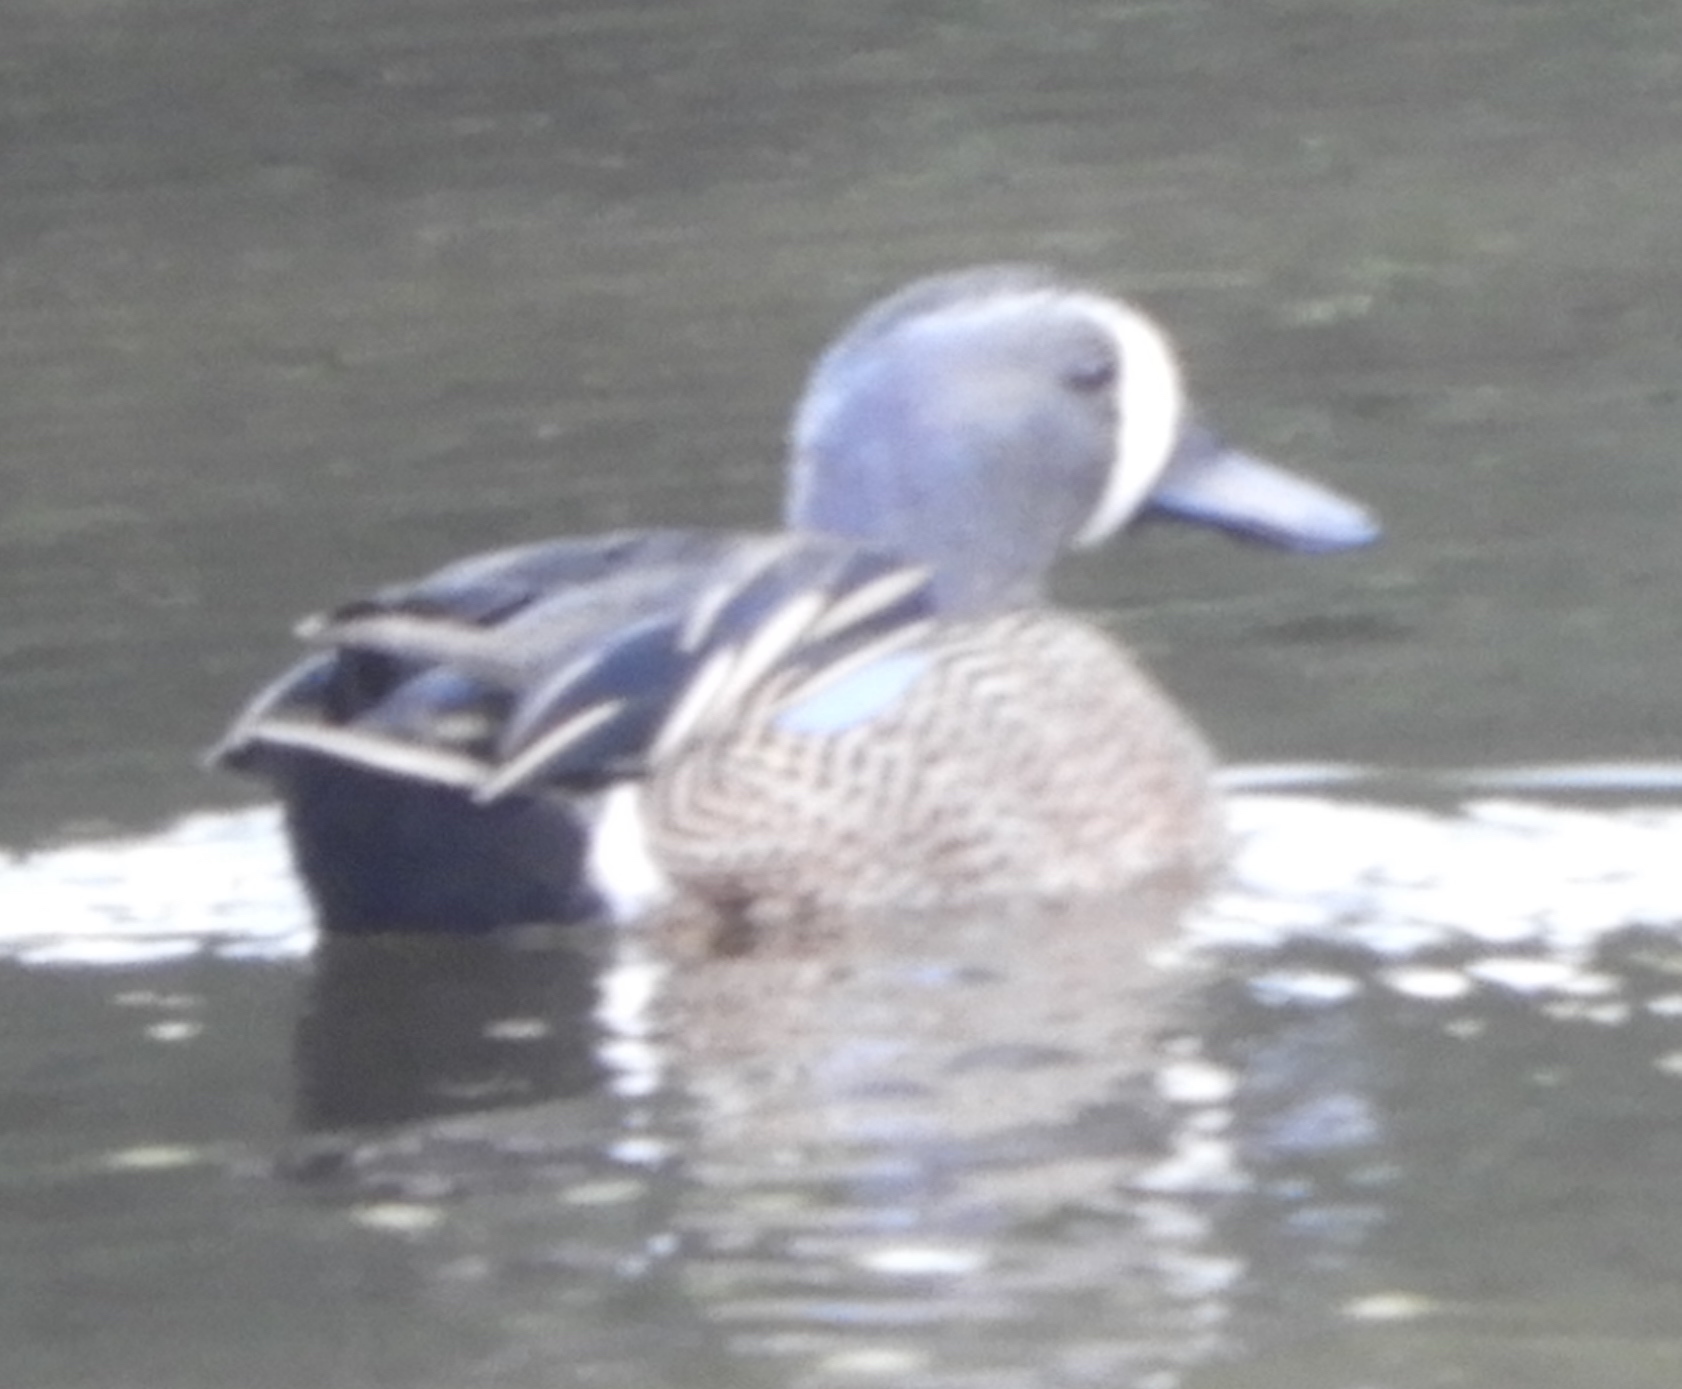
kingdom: Animalia
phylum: Chordata
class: Aves
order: Anseriformes
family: Anatidae
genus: Spatula
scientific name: Spatula discors
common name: Blue-winged teal
